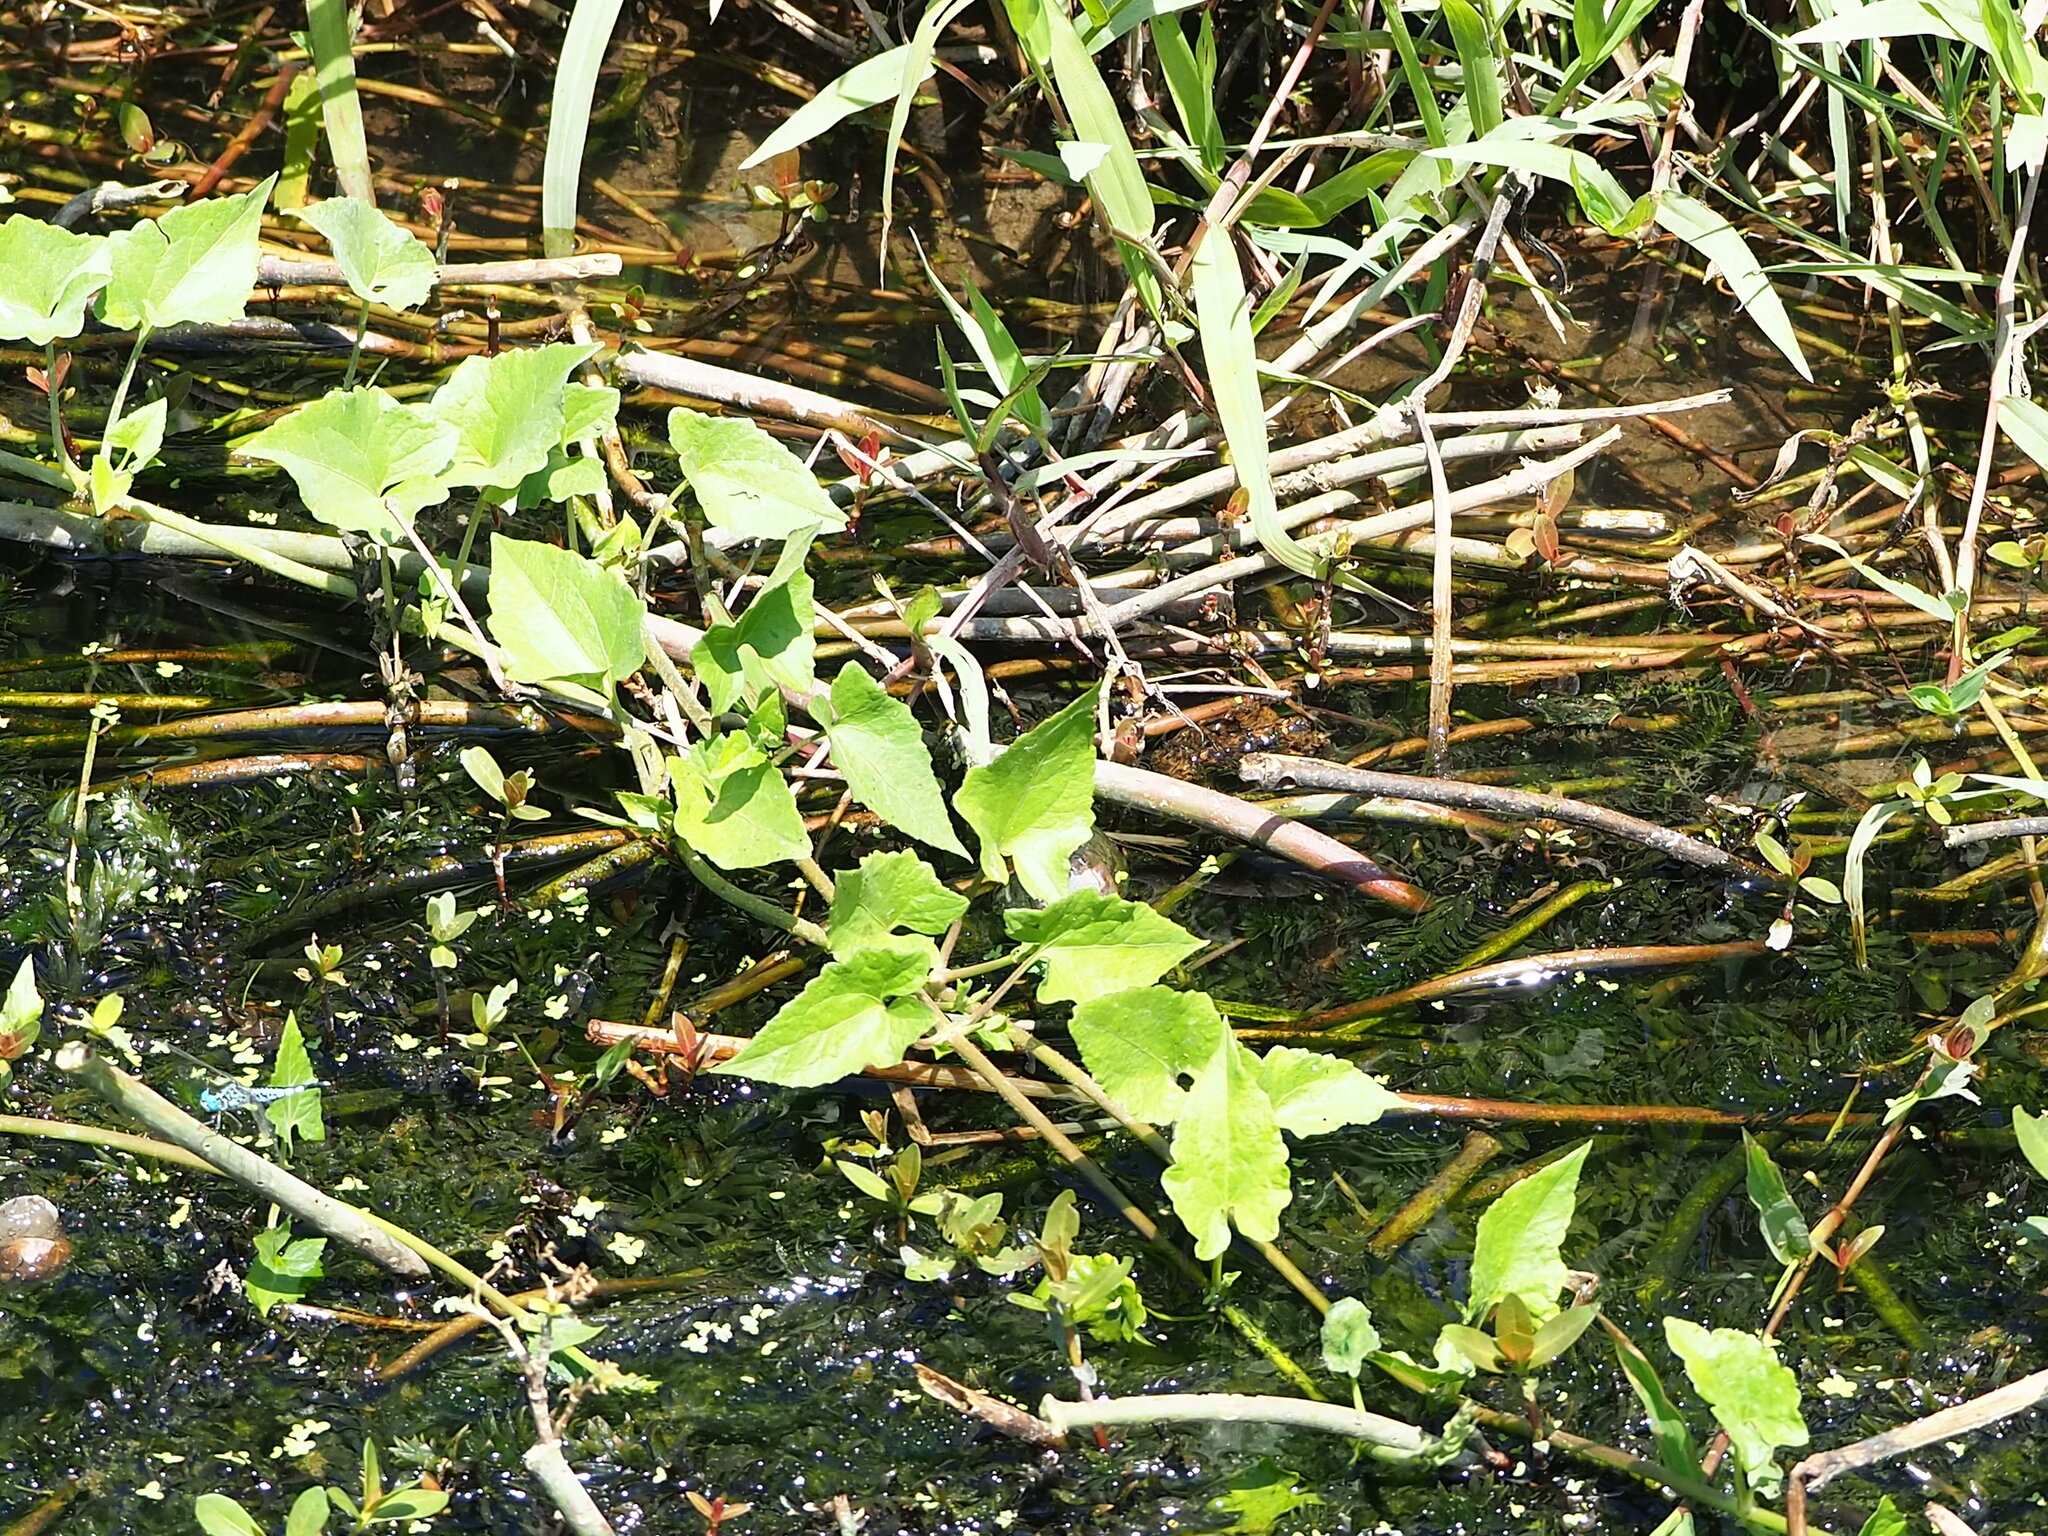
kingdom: Plantae
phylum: Tracheophyta
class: Magnoliopsida
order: Asterales
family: Asteraceae
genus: Mikania
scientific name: Mikania micrantha
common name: Mile-a-minute
